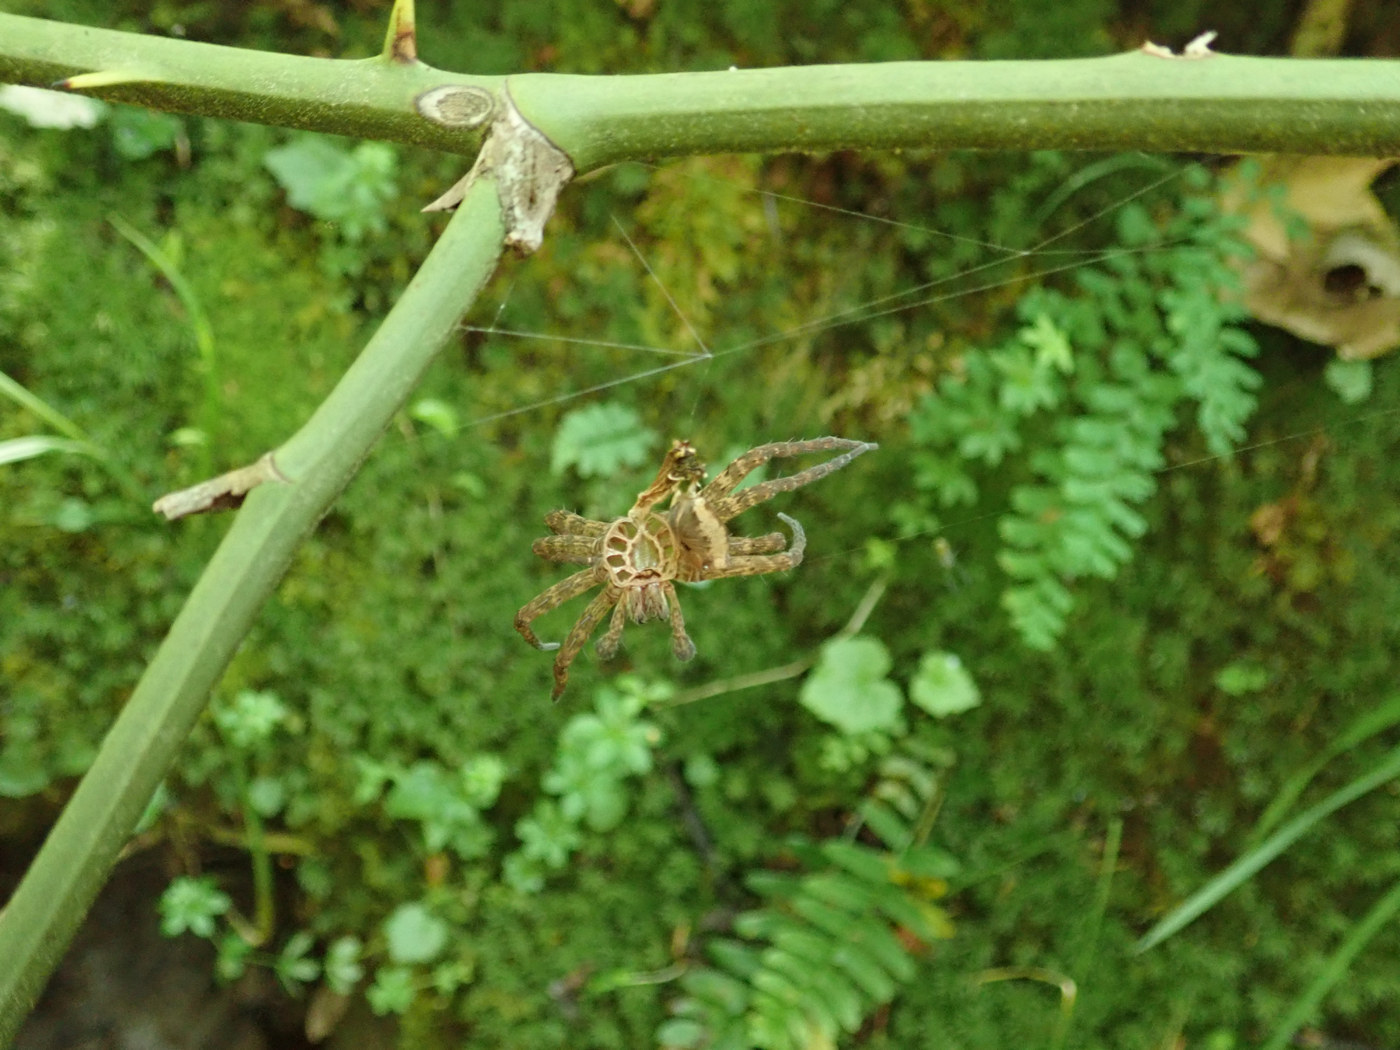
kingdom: Animalia
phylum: Arthropoda
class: Arachnida
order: Araneae
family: Pisauridae
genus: Dolomedes
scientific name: Dolomedes vittatus
